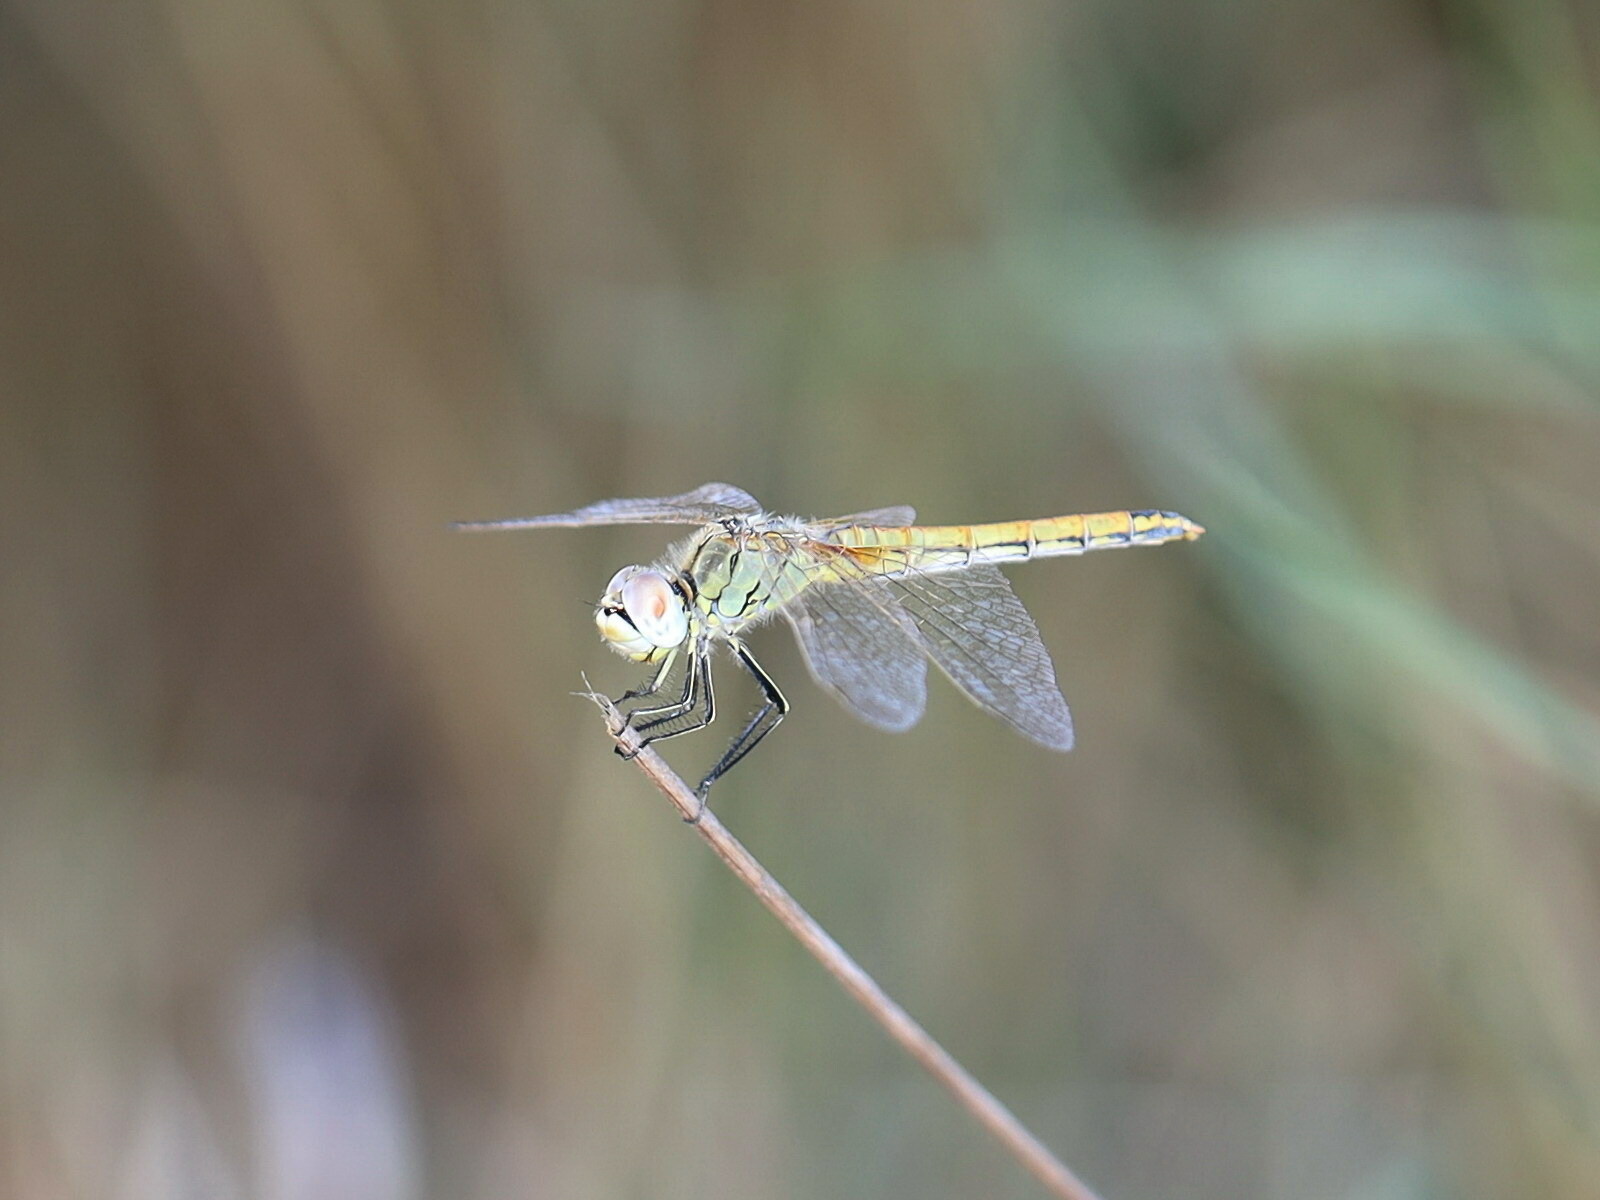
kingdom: Animalia
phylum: Arthropoda
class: Insecta
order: Odonata
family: Libellulidae
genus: Sympetrum
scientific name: Sympetrum fonscolombii
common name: Red-veined darter
